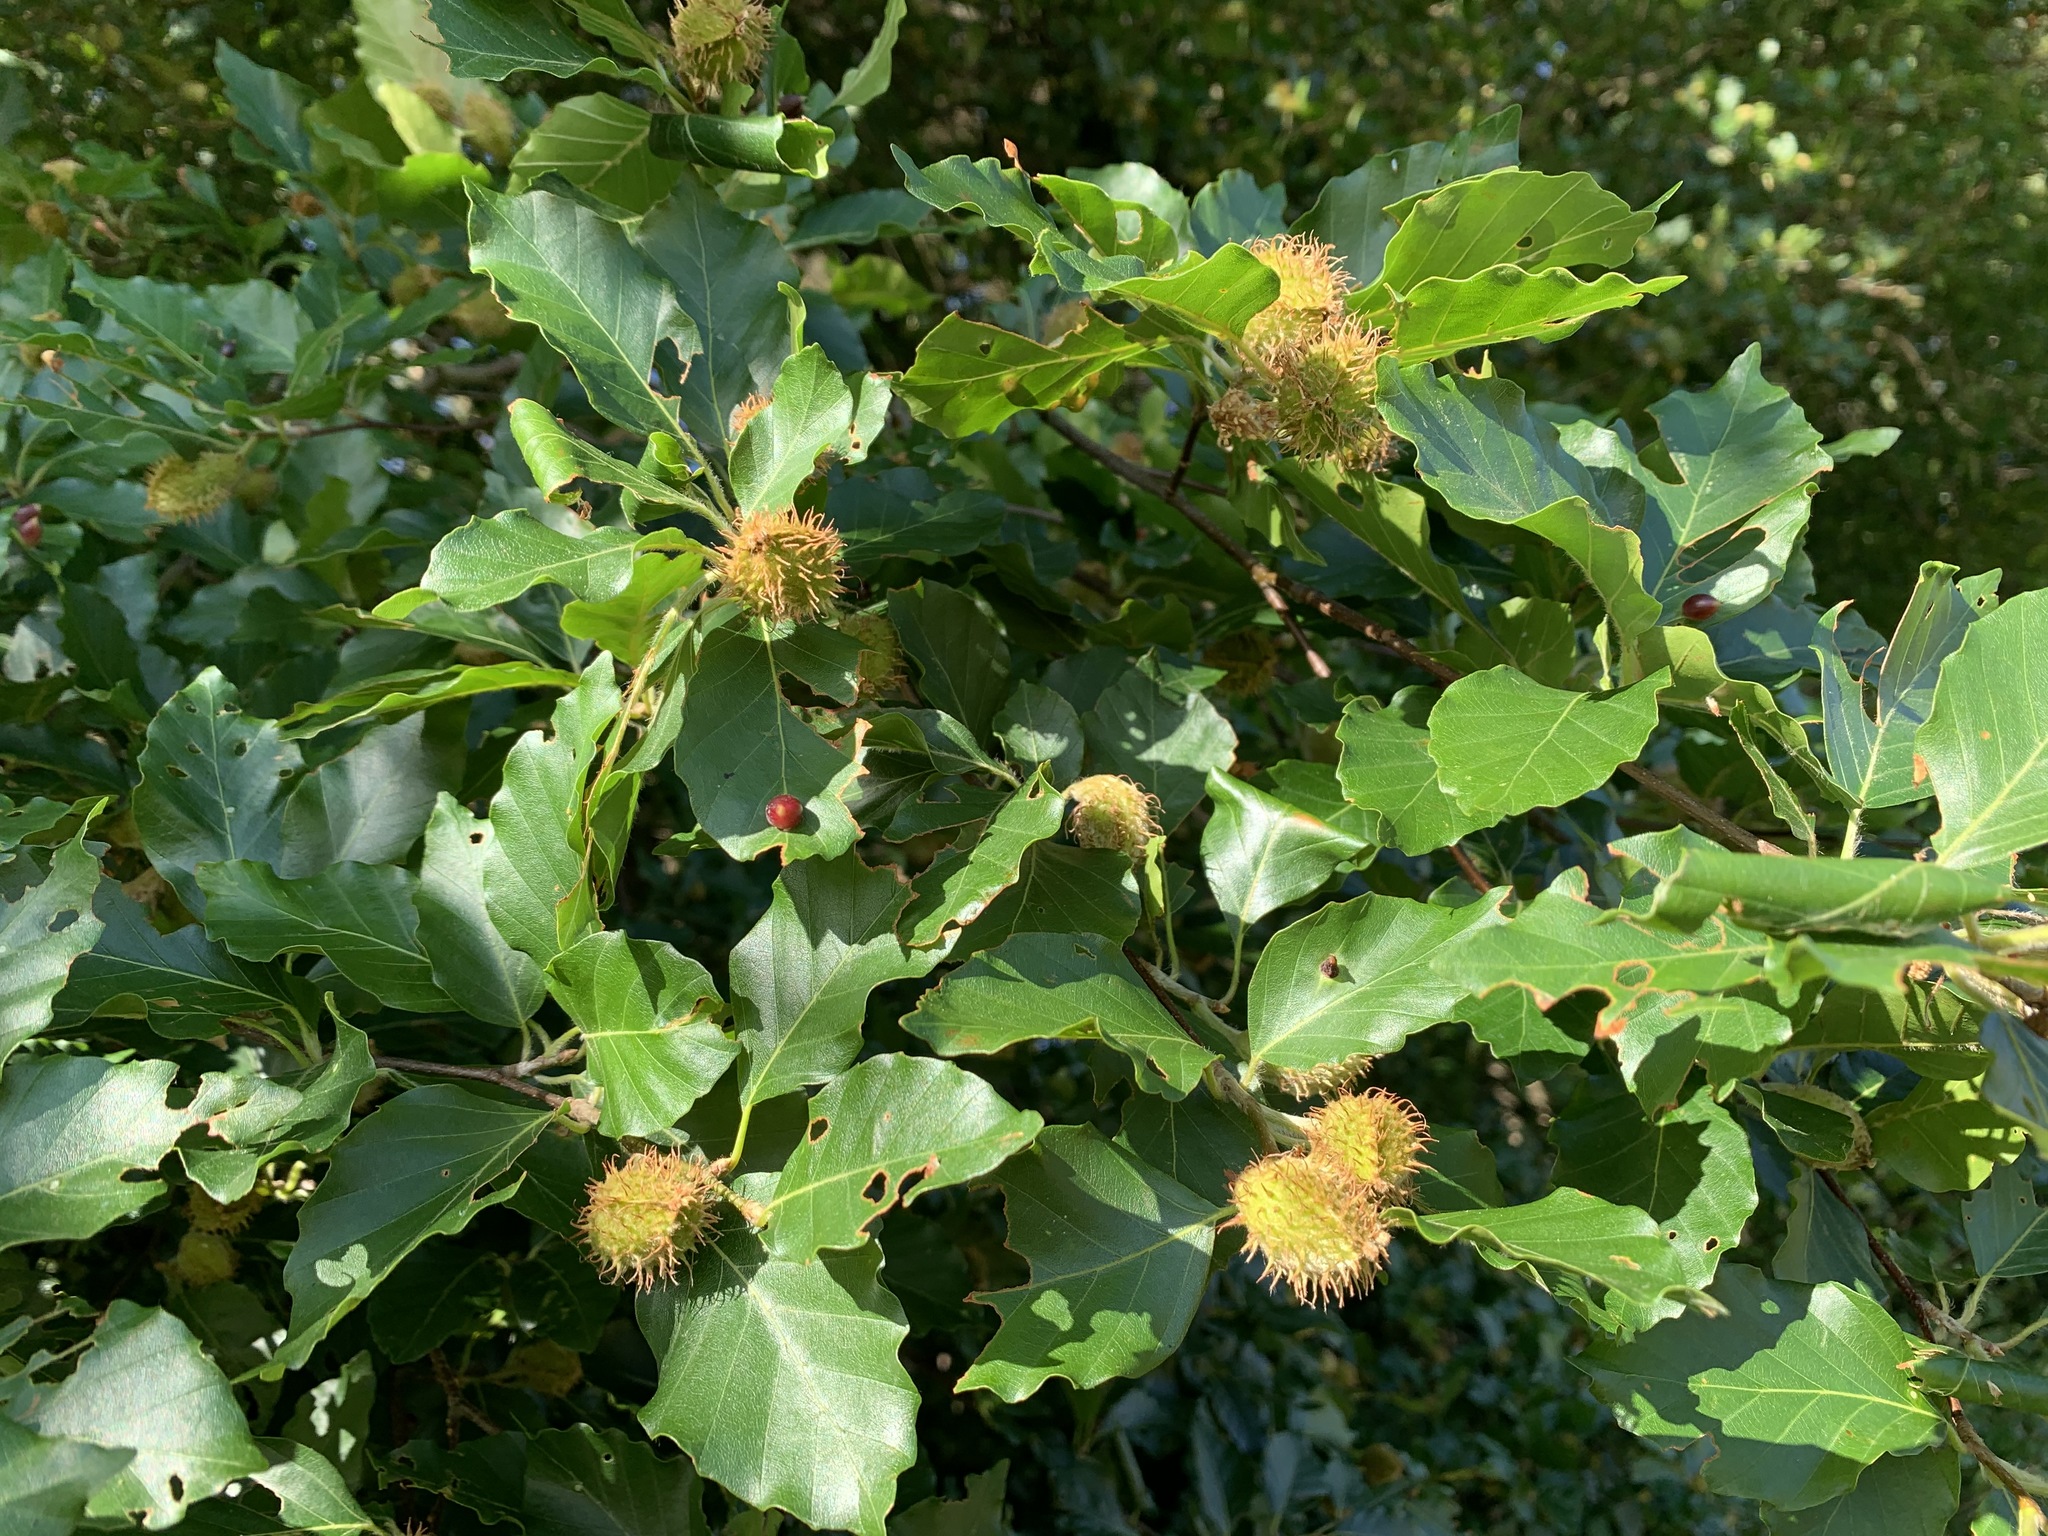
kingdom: Plantae
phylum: Tracheophyta
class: Magnoliopsida
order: Fagales
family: Fagaceae
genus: Fagus
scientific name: Fagus sylvatica
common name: Beech
